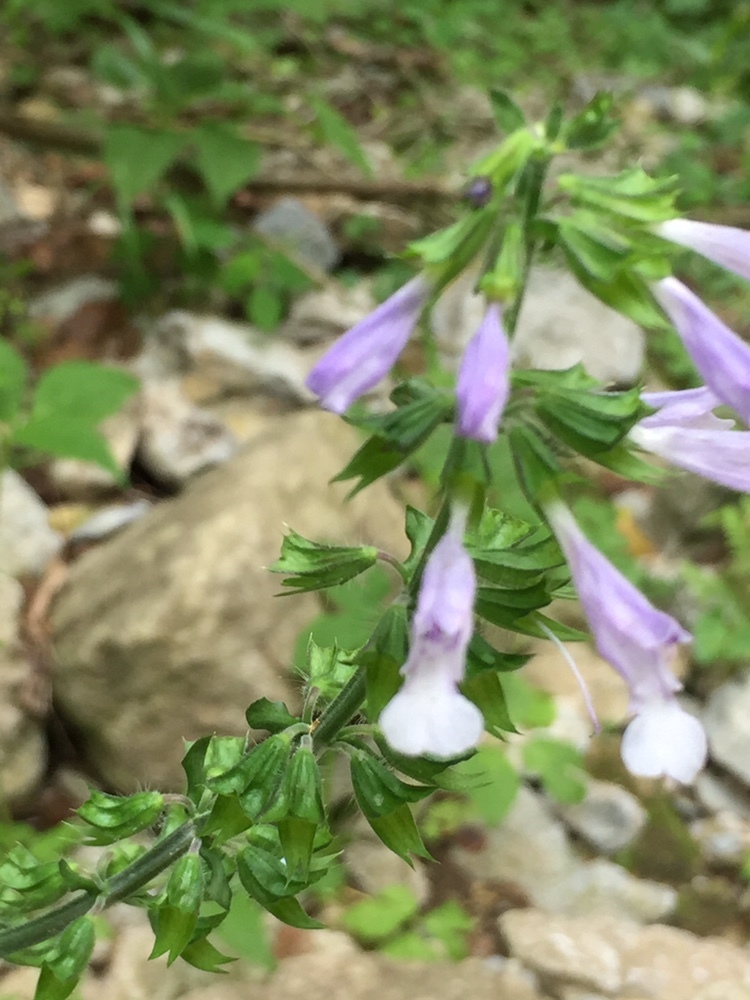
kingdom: Plantae
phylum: Tracheophyta
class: Magnoliopsida
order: Lamiales
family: Lamiaceae
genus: Salvia
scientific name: Salvia lyrata
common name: Cancerweed
